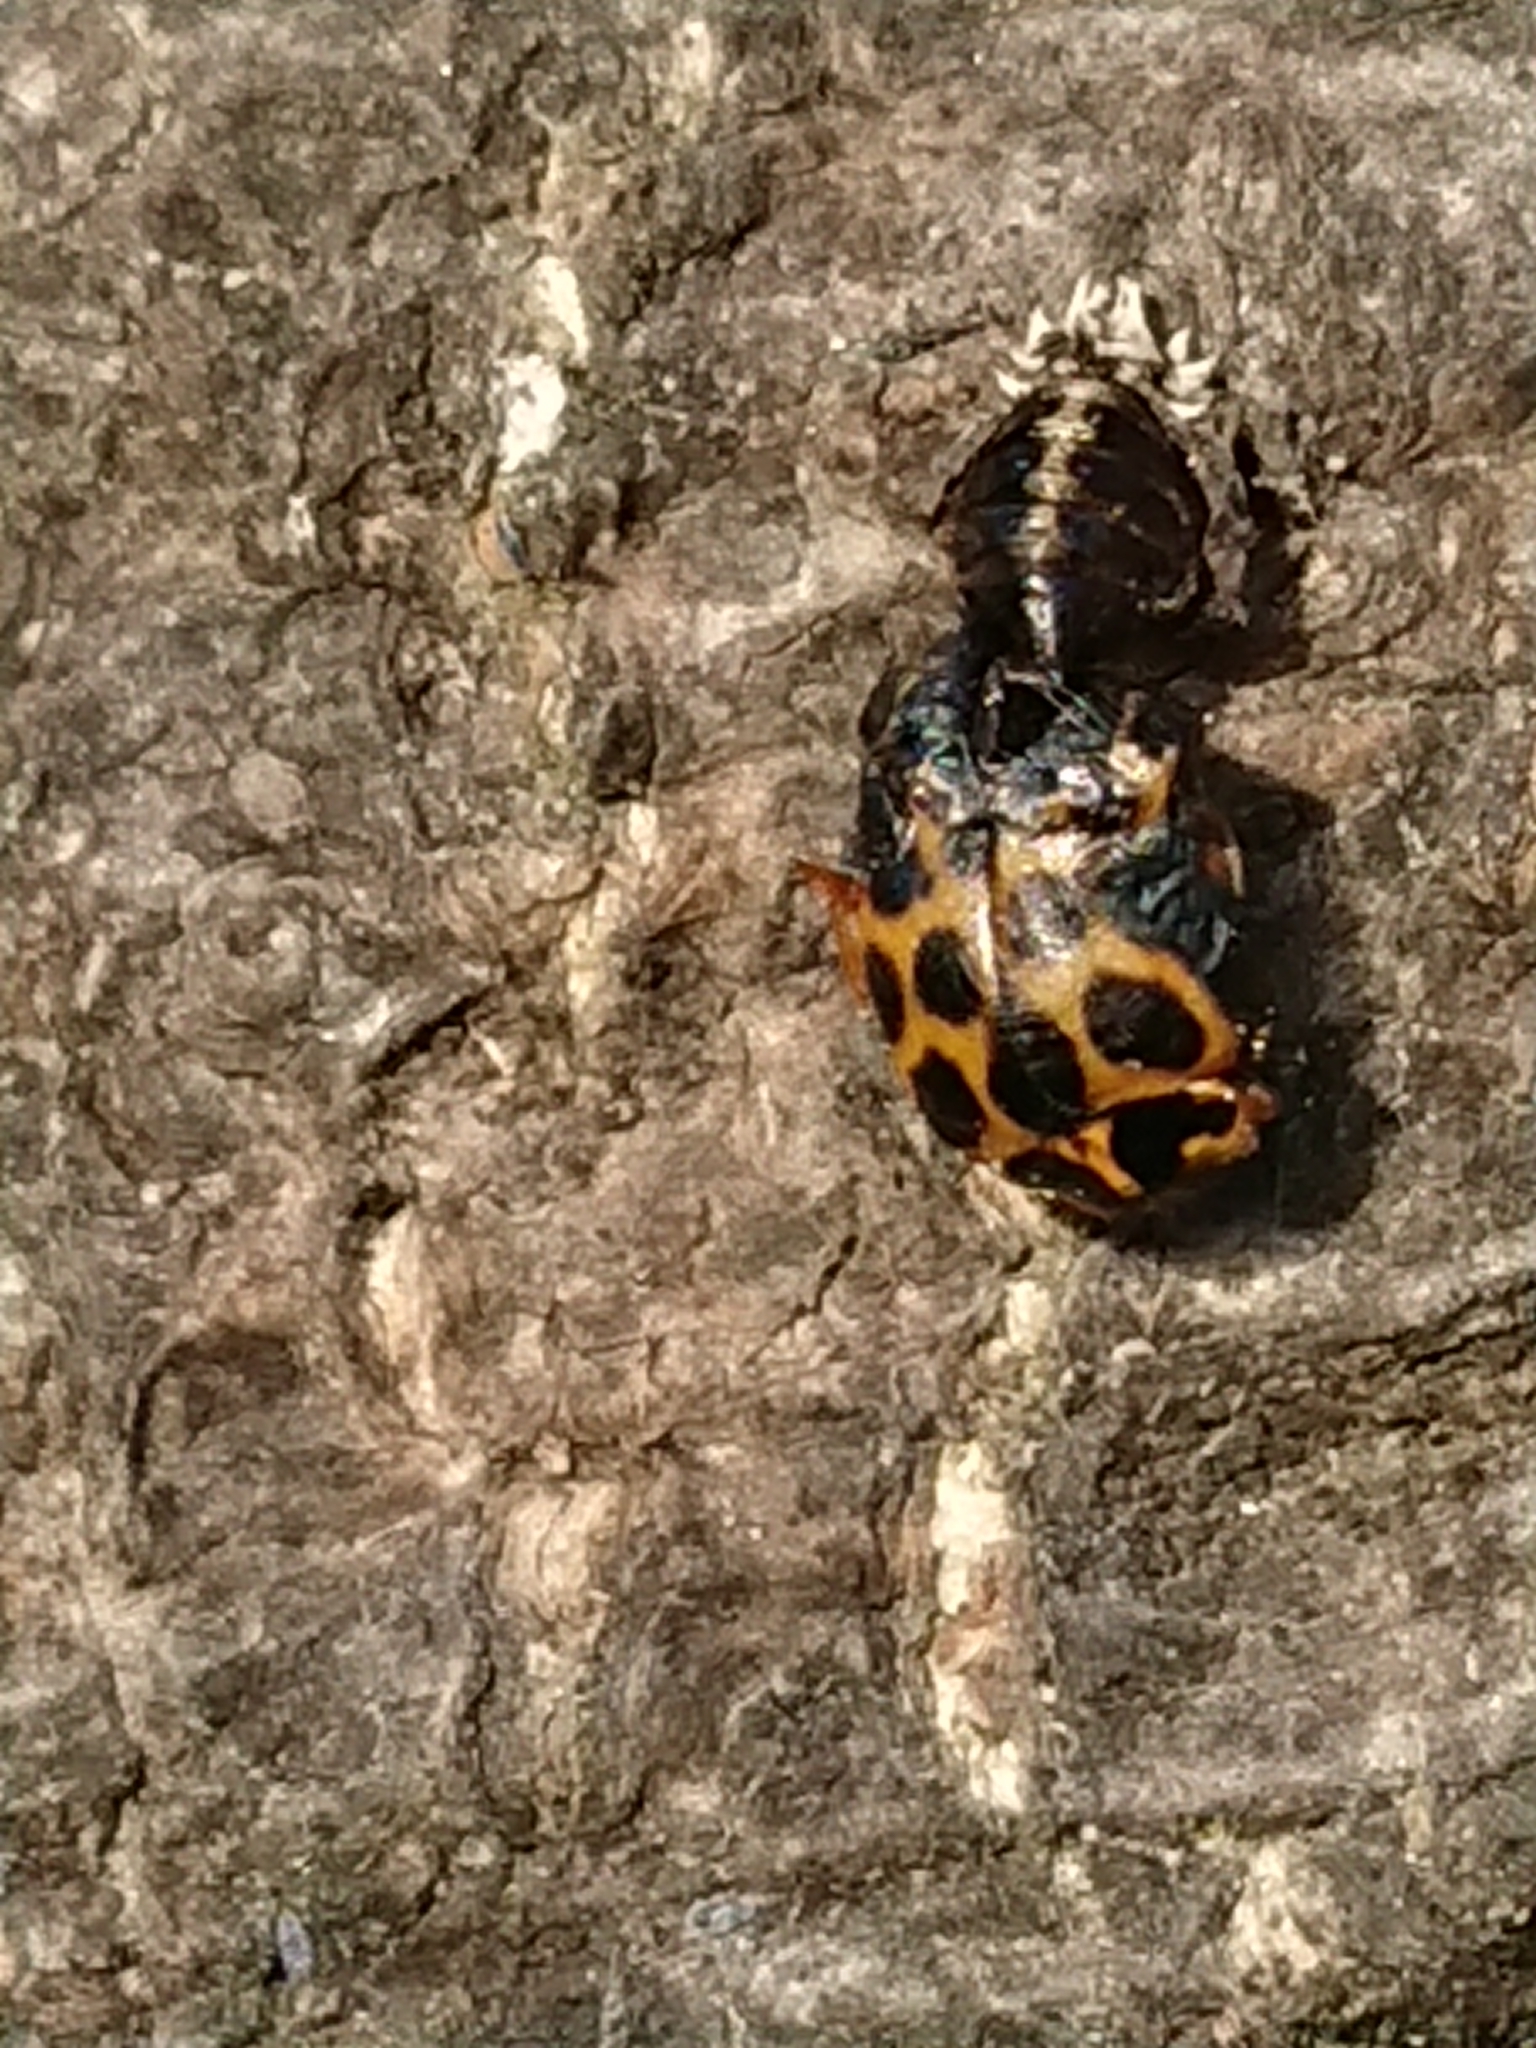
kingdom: Animalia
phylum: Arthropoda
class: Insecta
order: Coleoptera
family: Coccinellidae
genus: Harmonia
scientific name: Harmonia conformis
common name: Common spotted ladybird beetle
